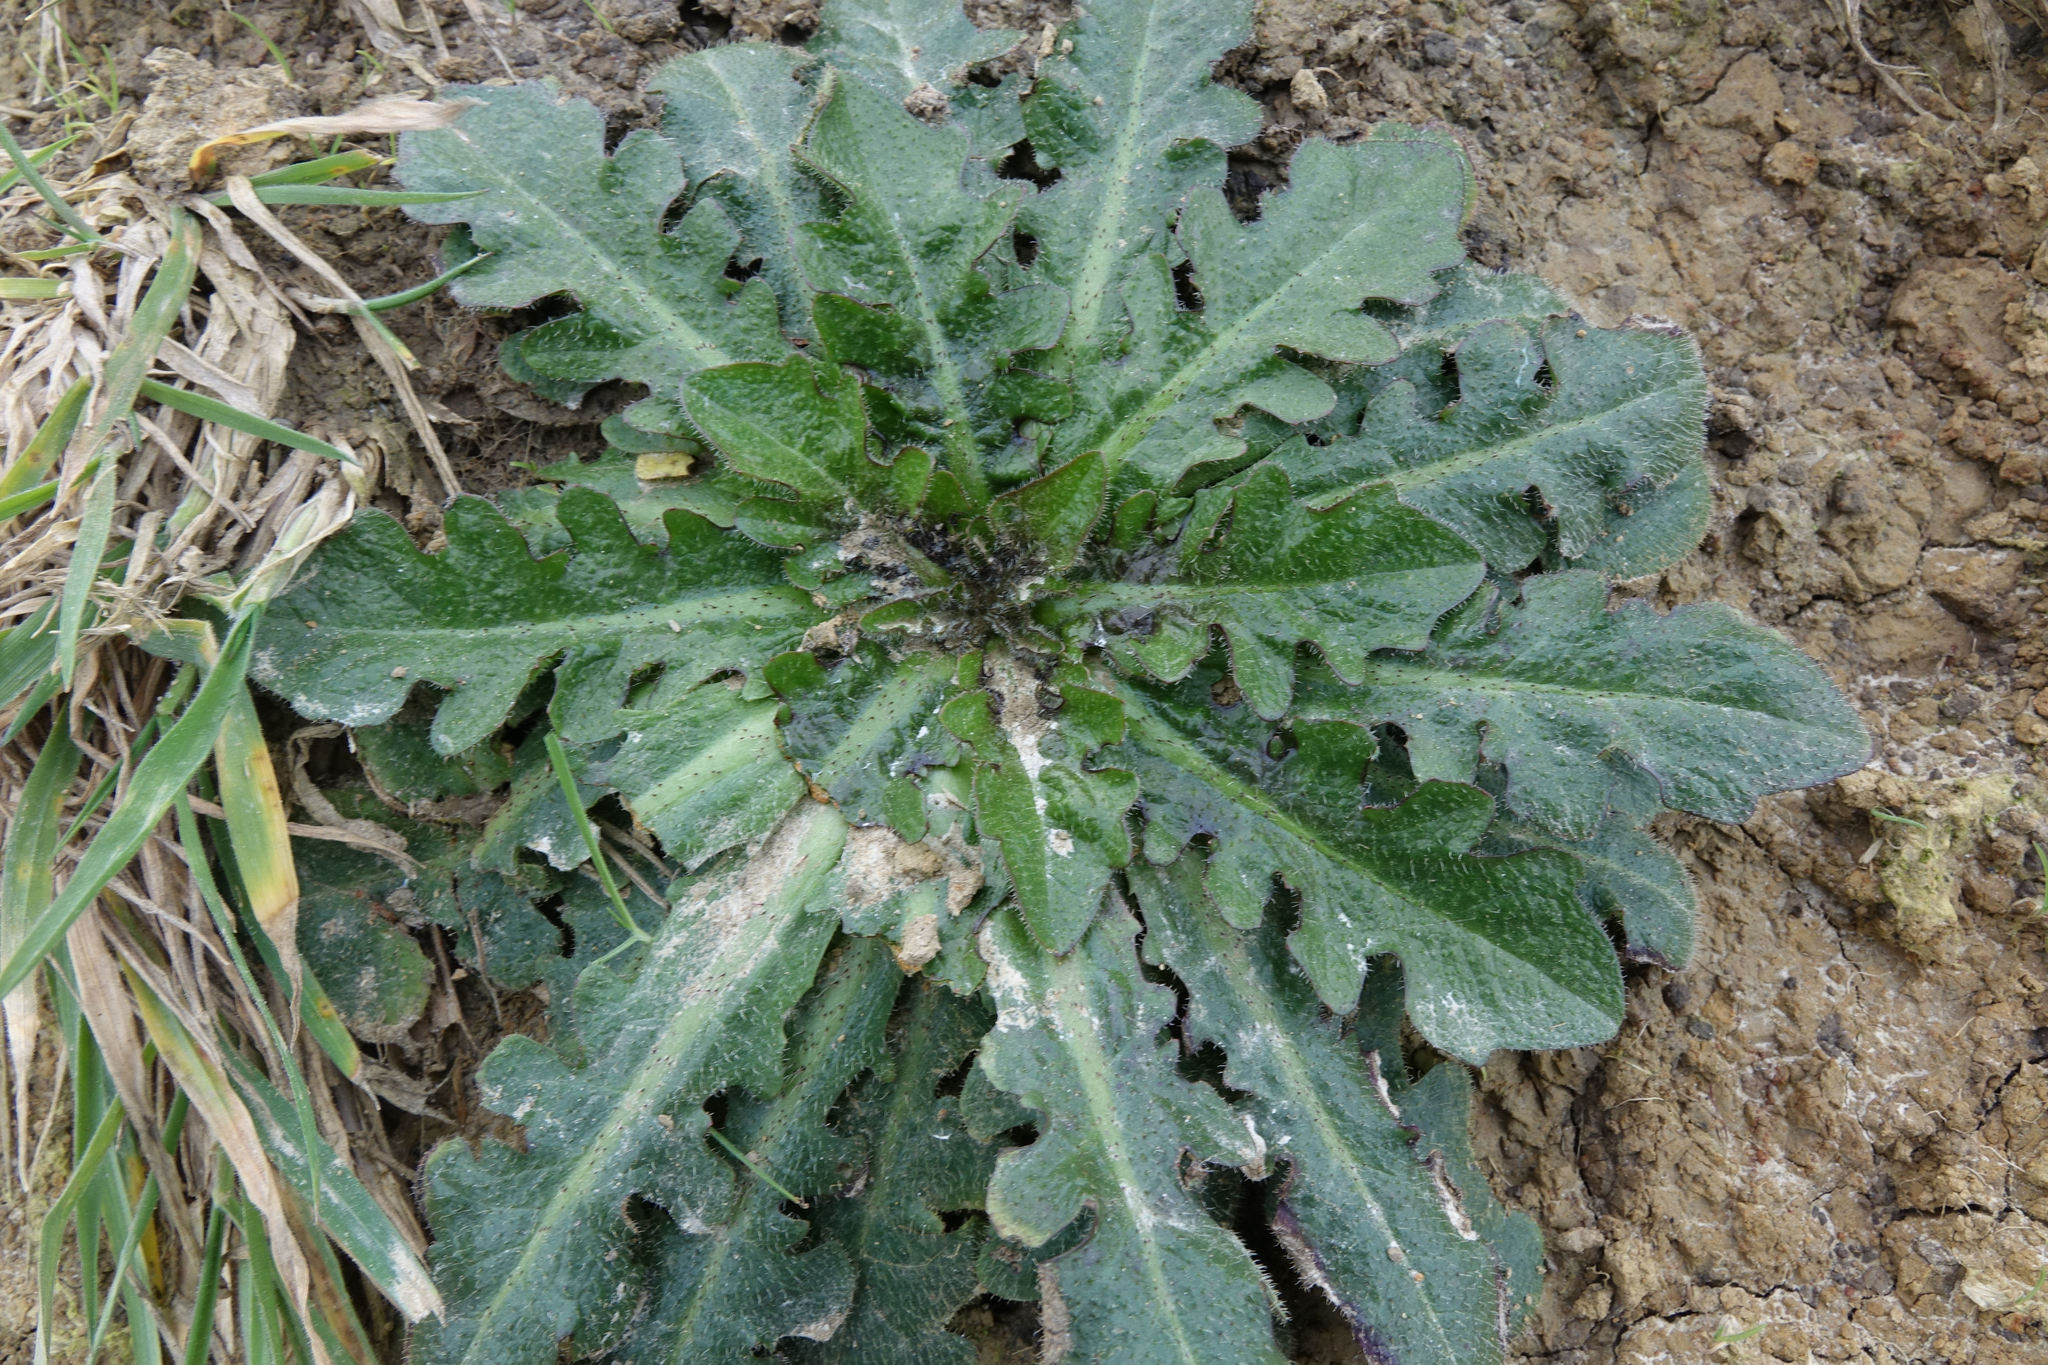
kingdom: Plantae
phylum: Tracheophyta
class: Magnoliopsida
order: Asterales
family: Asteraceae
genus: Hypochaeris
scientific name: Hypochaeris radicata
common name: Flatweed
